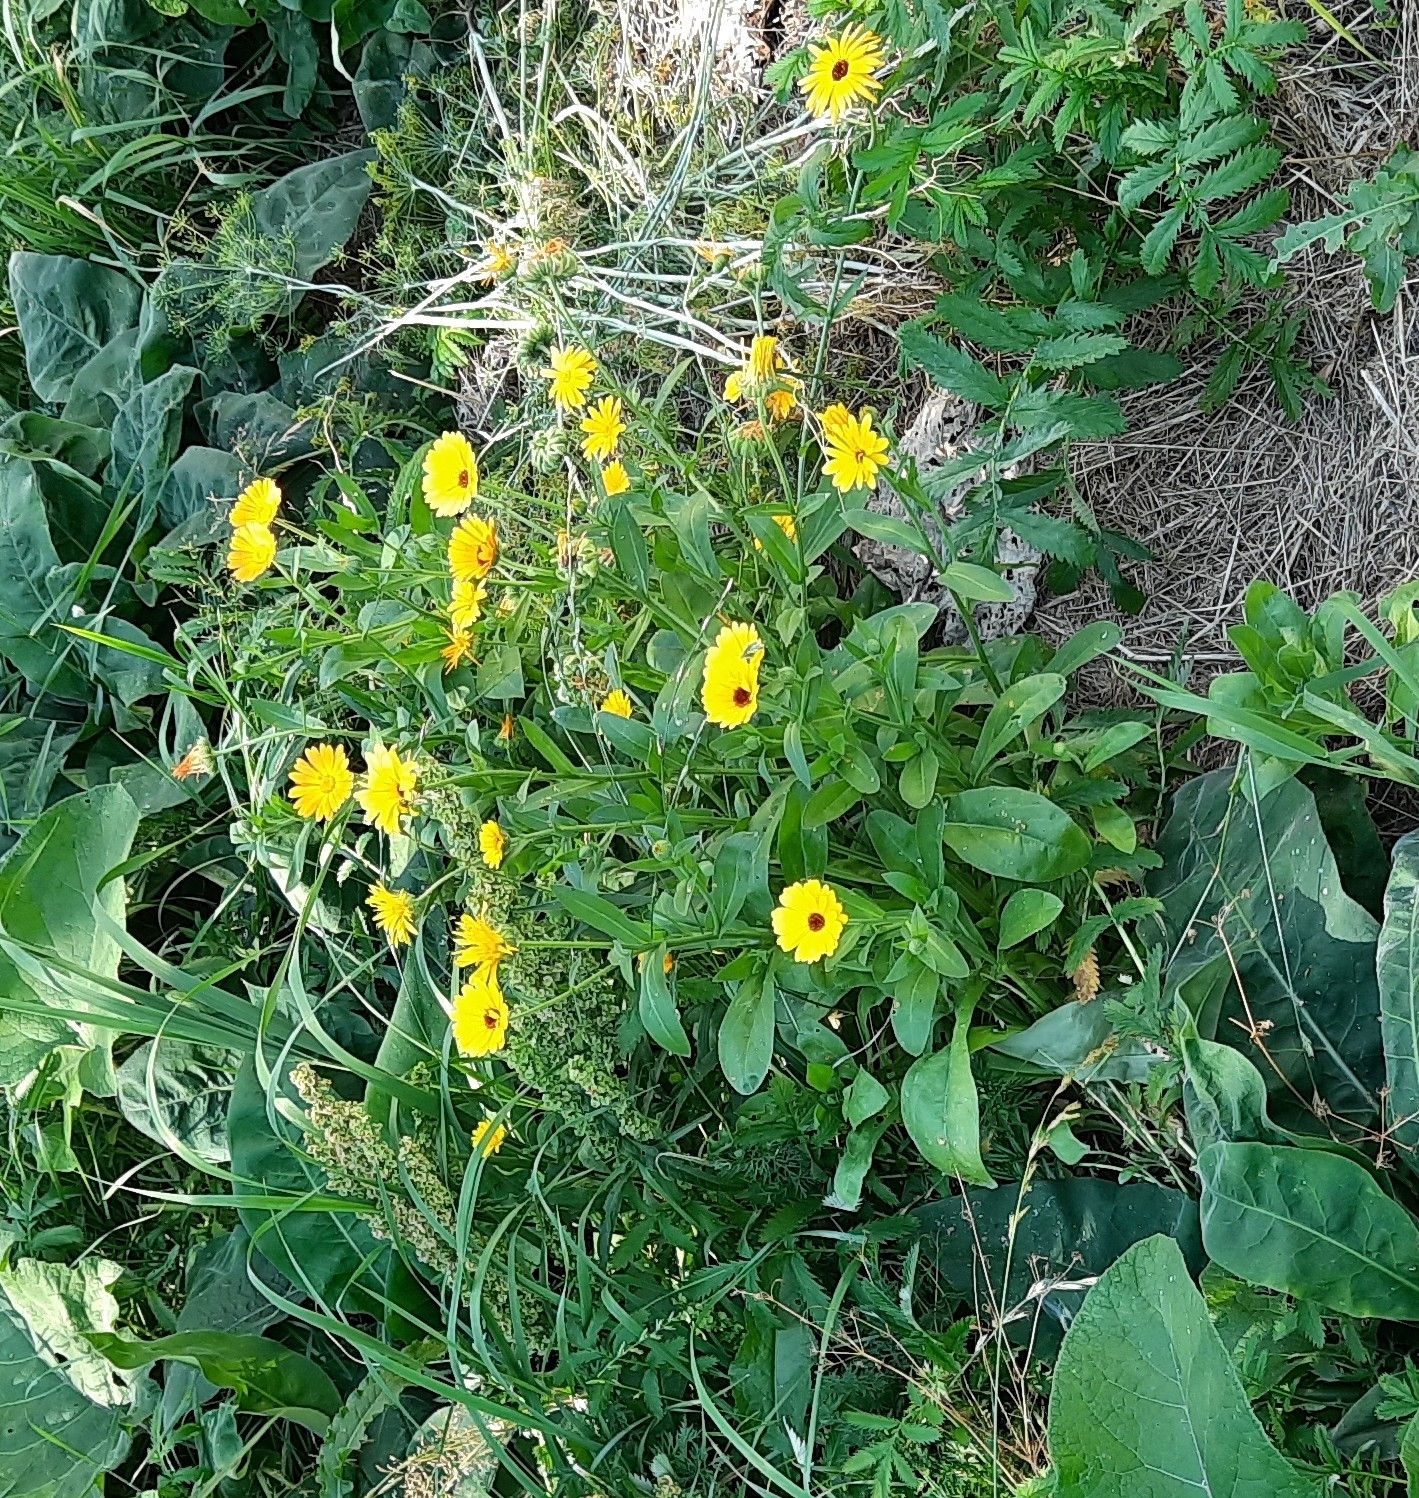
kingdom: Plantae
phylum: Tracheophyta
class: Magnoliopsida
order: Asterales
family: Asteraceae
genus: Calendula
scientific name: Calendula officinalis
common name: Pot marigold
